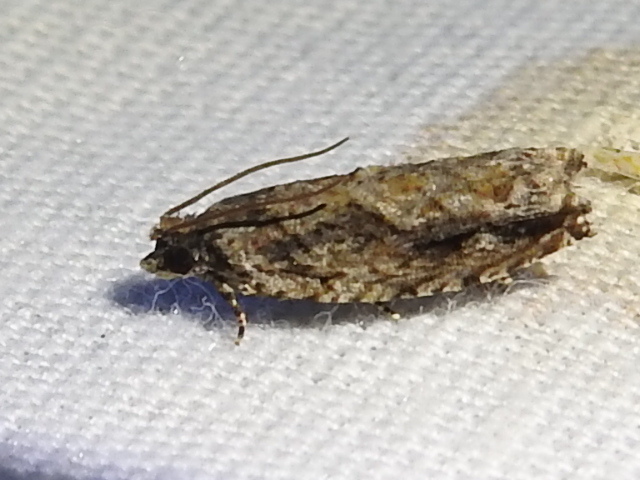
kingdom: Animalia
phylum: Arthropoda
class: Insecta
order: Lepidoptera
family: Tortricidae
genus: Gretchena
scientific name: Gretchena bolliana
